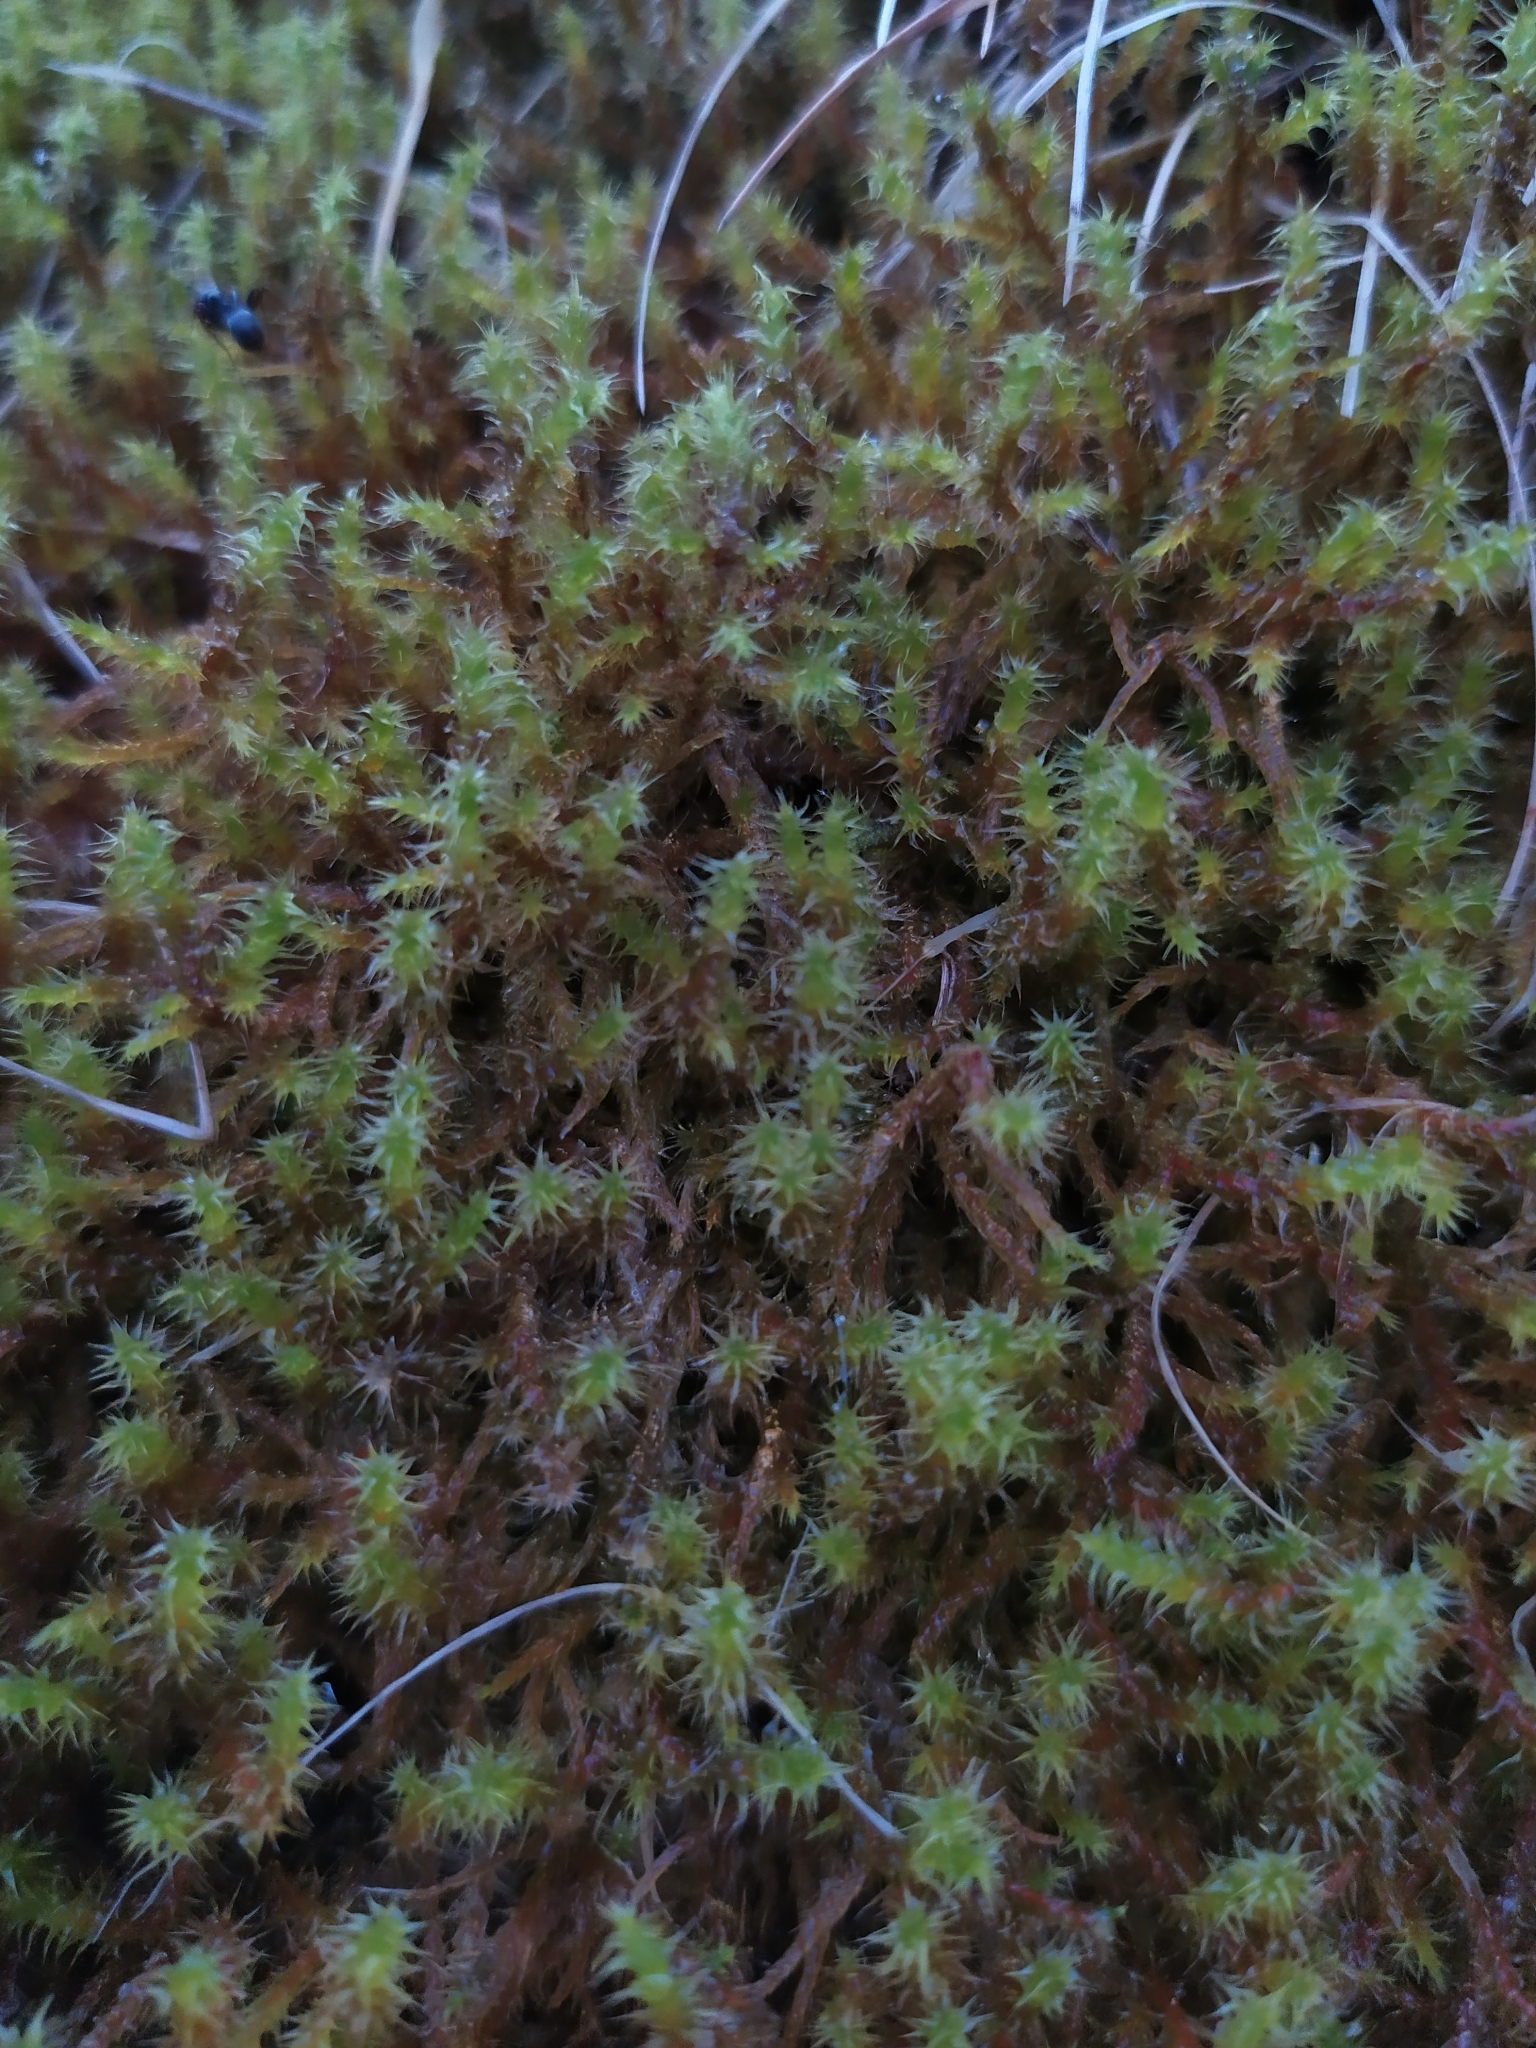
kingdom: Plantae
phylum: Bryophyta
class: Bryopsida
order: Hypnales
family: Hylocomiaceae
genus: Rhytidiadelphus
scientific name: Rhytidiadelphus squarrosus
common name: Springy turf-moss
